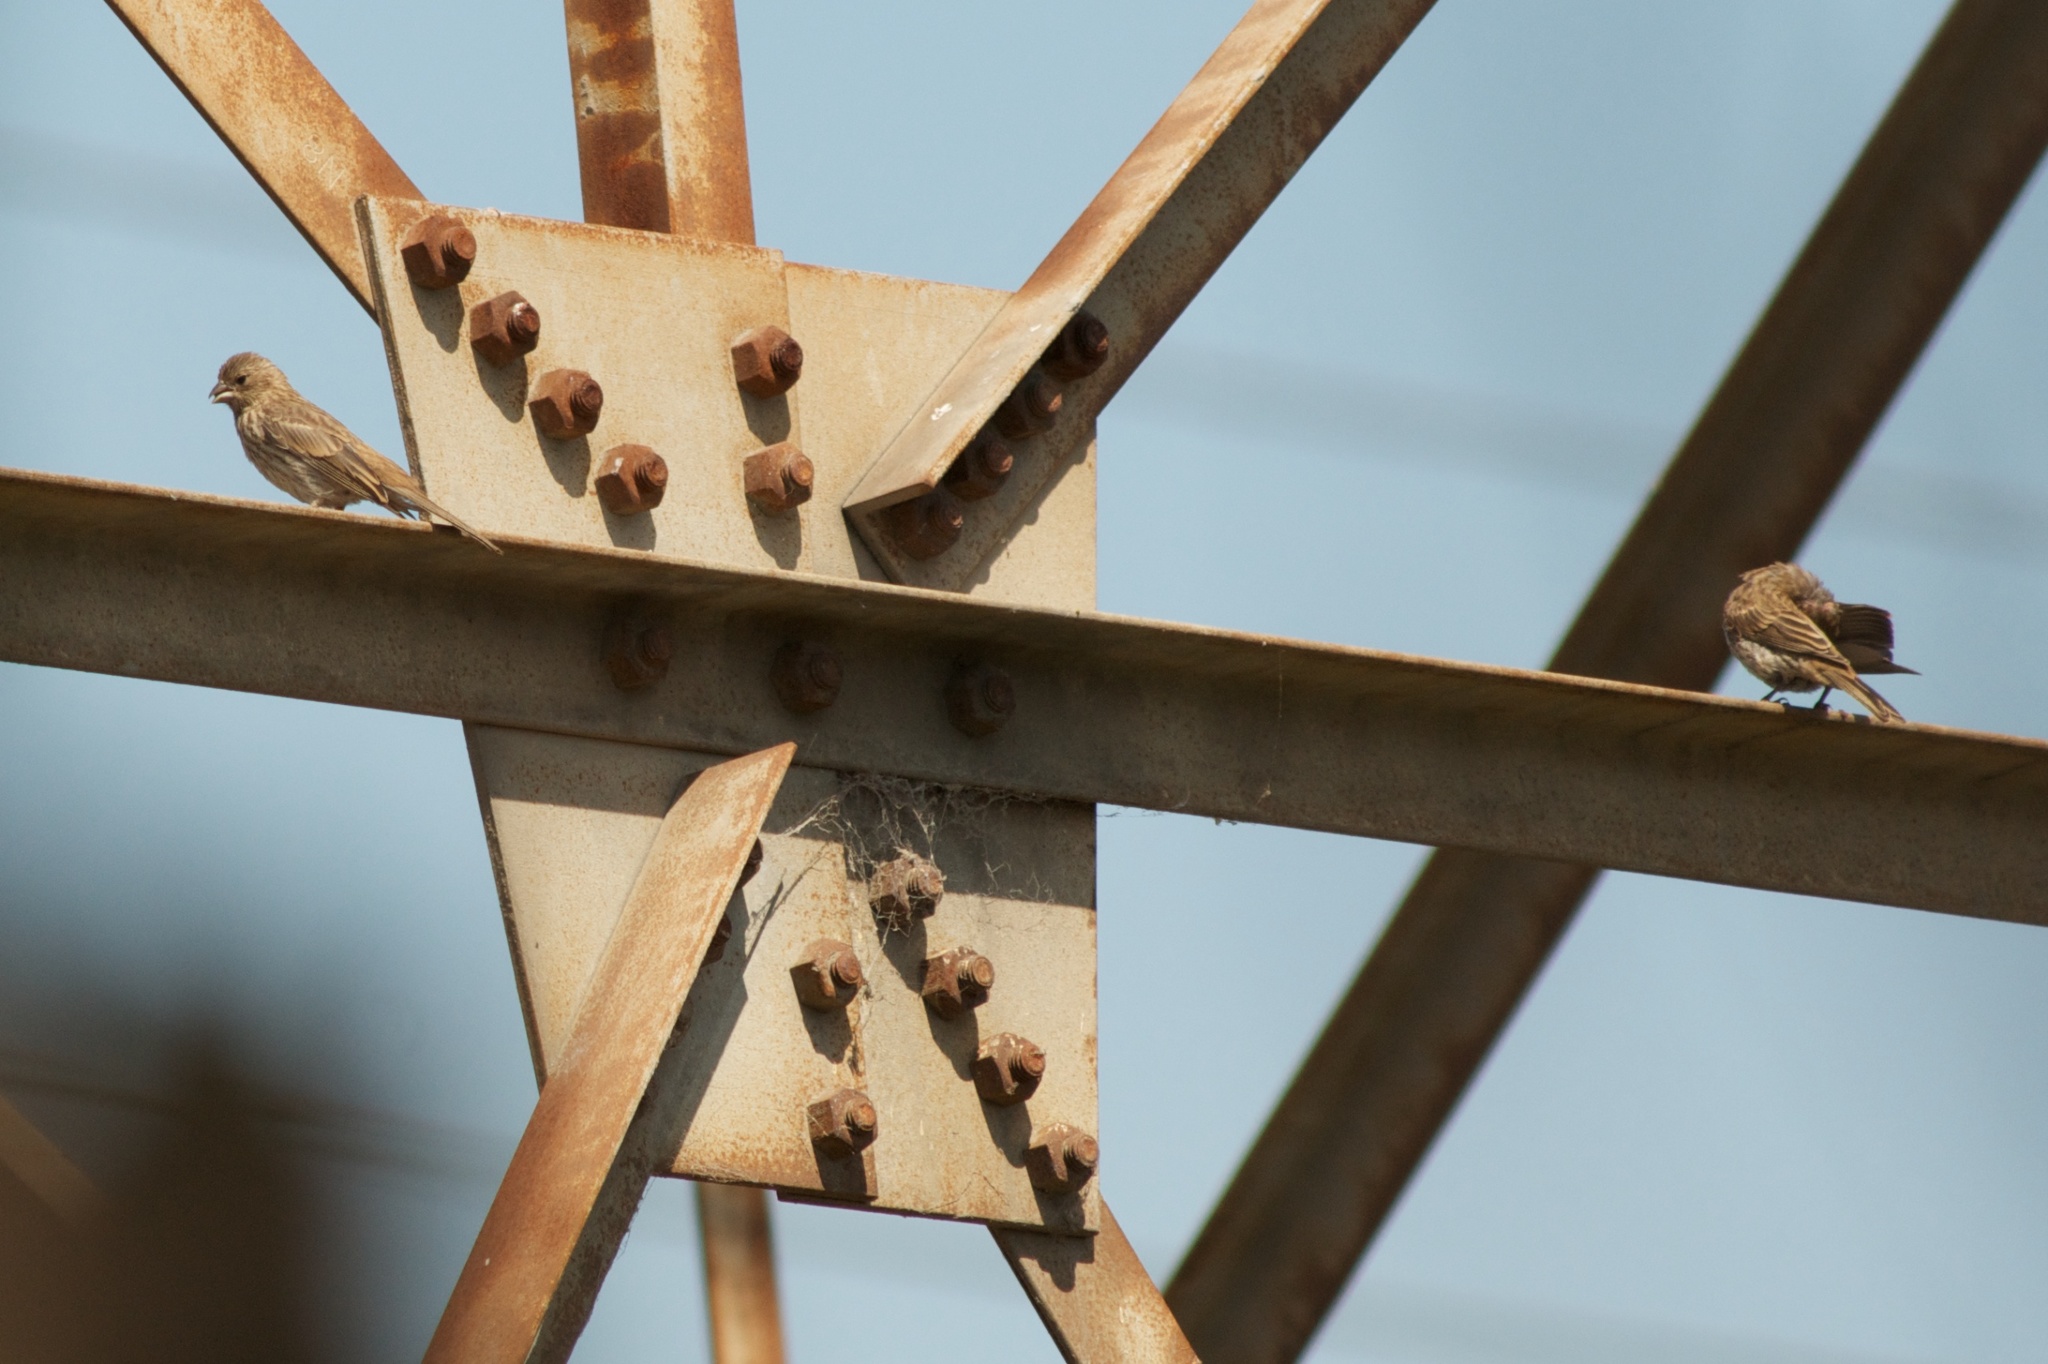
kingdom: Animalia
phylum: Chordata
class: Aves
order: Passeriformes
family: Fringillidae
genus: Haemorhous
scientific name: Haemorhous mexicanus
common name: House finch
